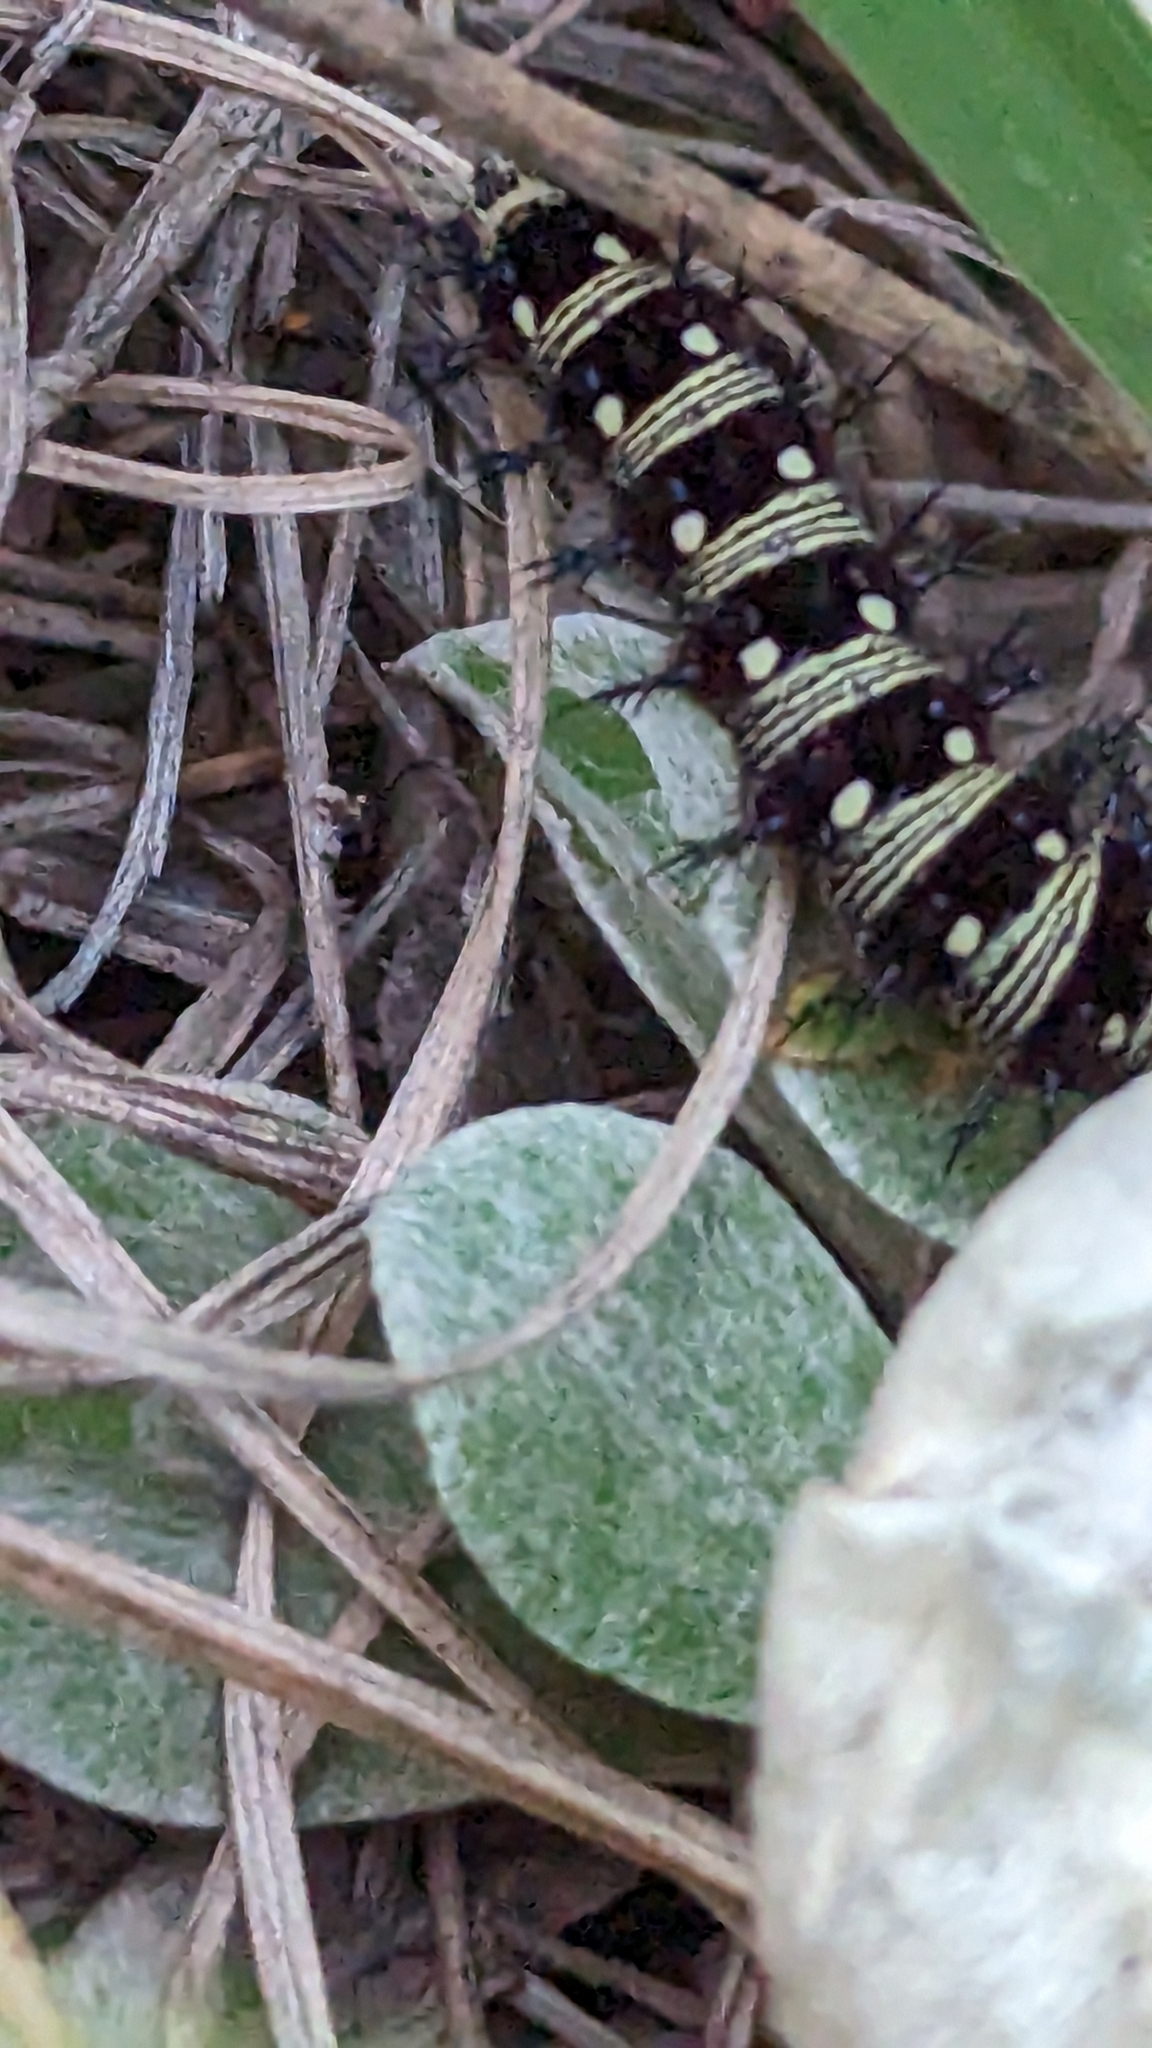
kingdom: Animalia
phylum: Arthropoda
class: Insecta
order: Lepidoptera
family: Nymphalidae
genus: Vanessa
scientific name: Vanessa virginiensis
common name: American lady
